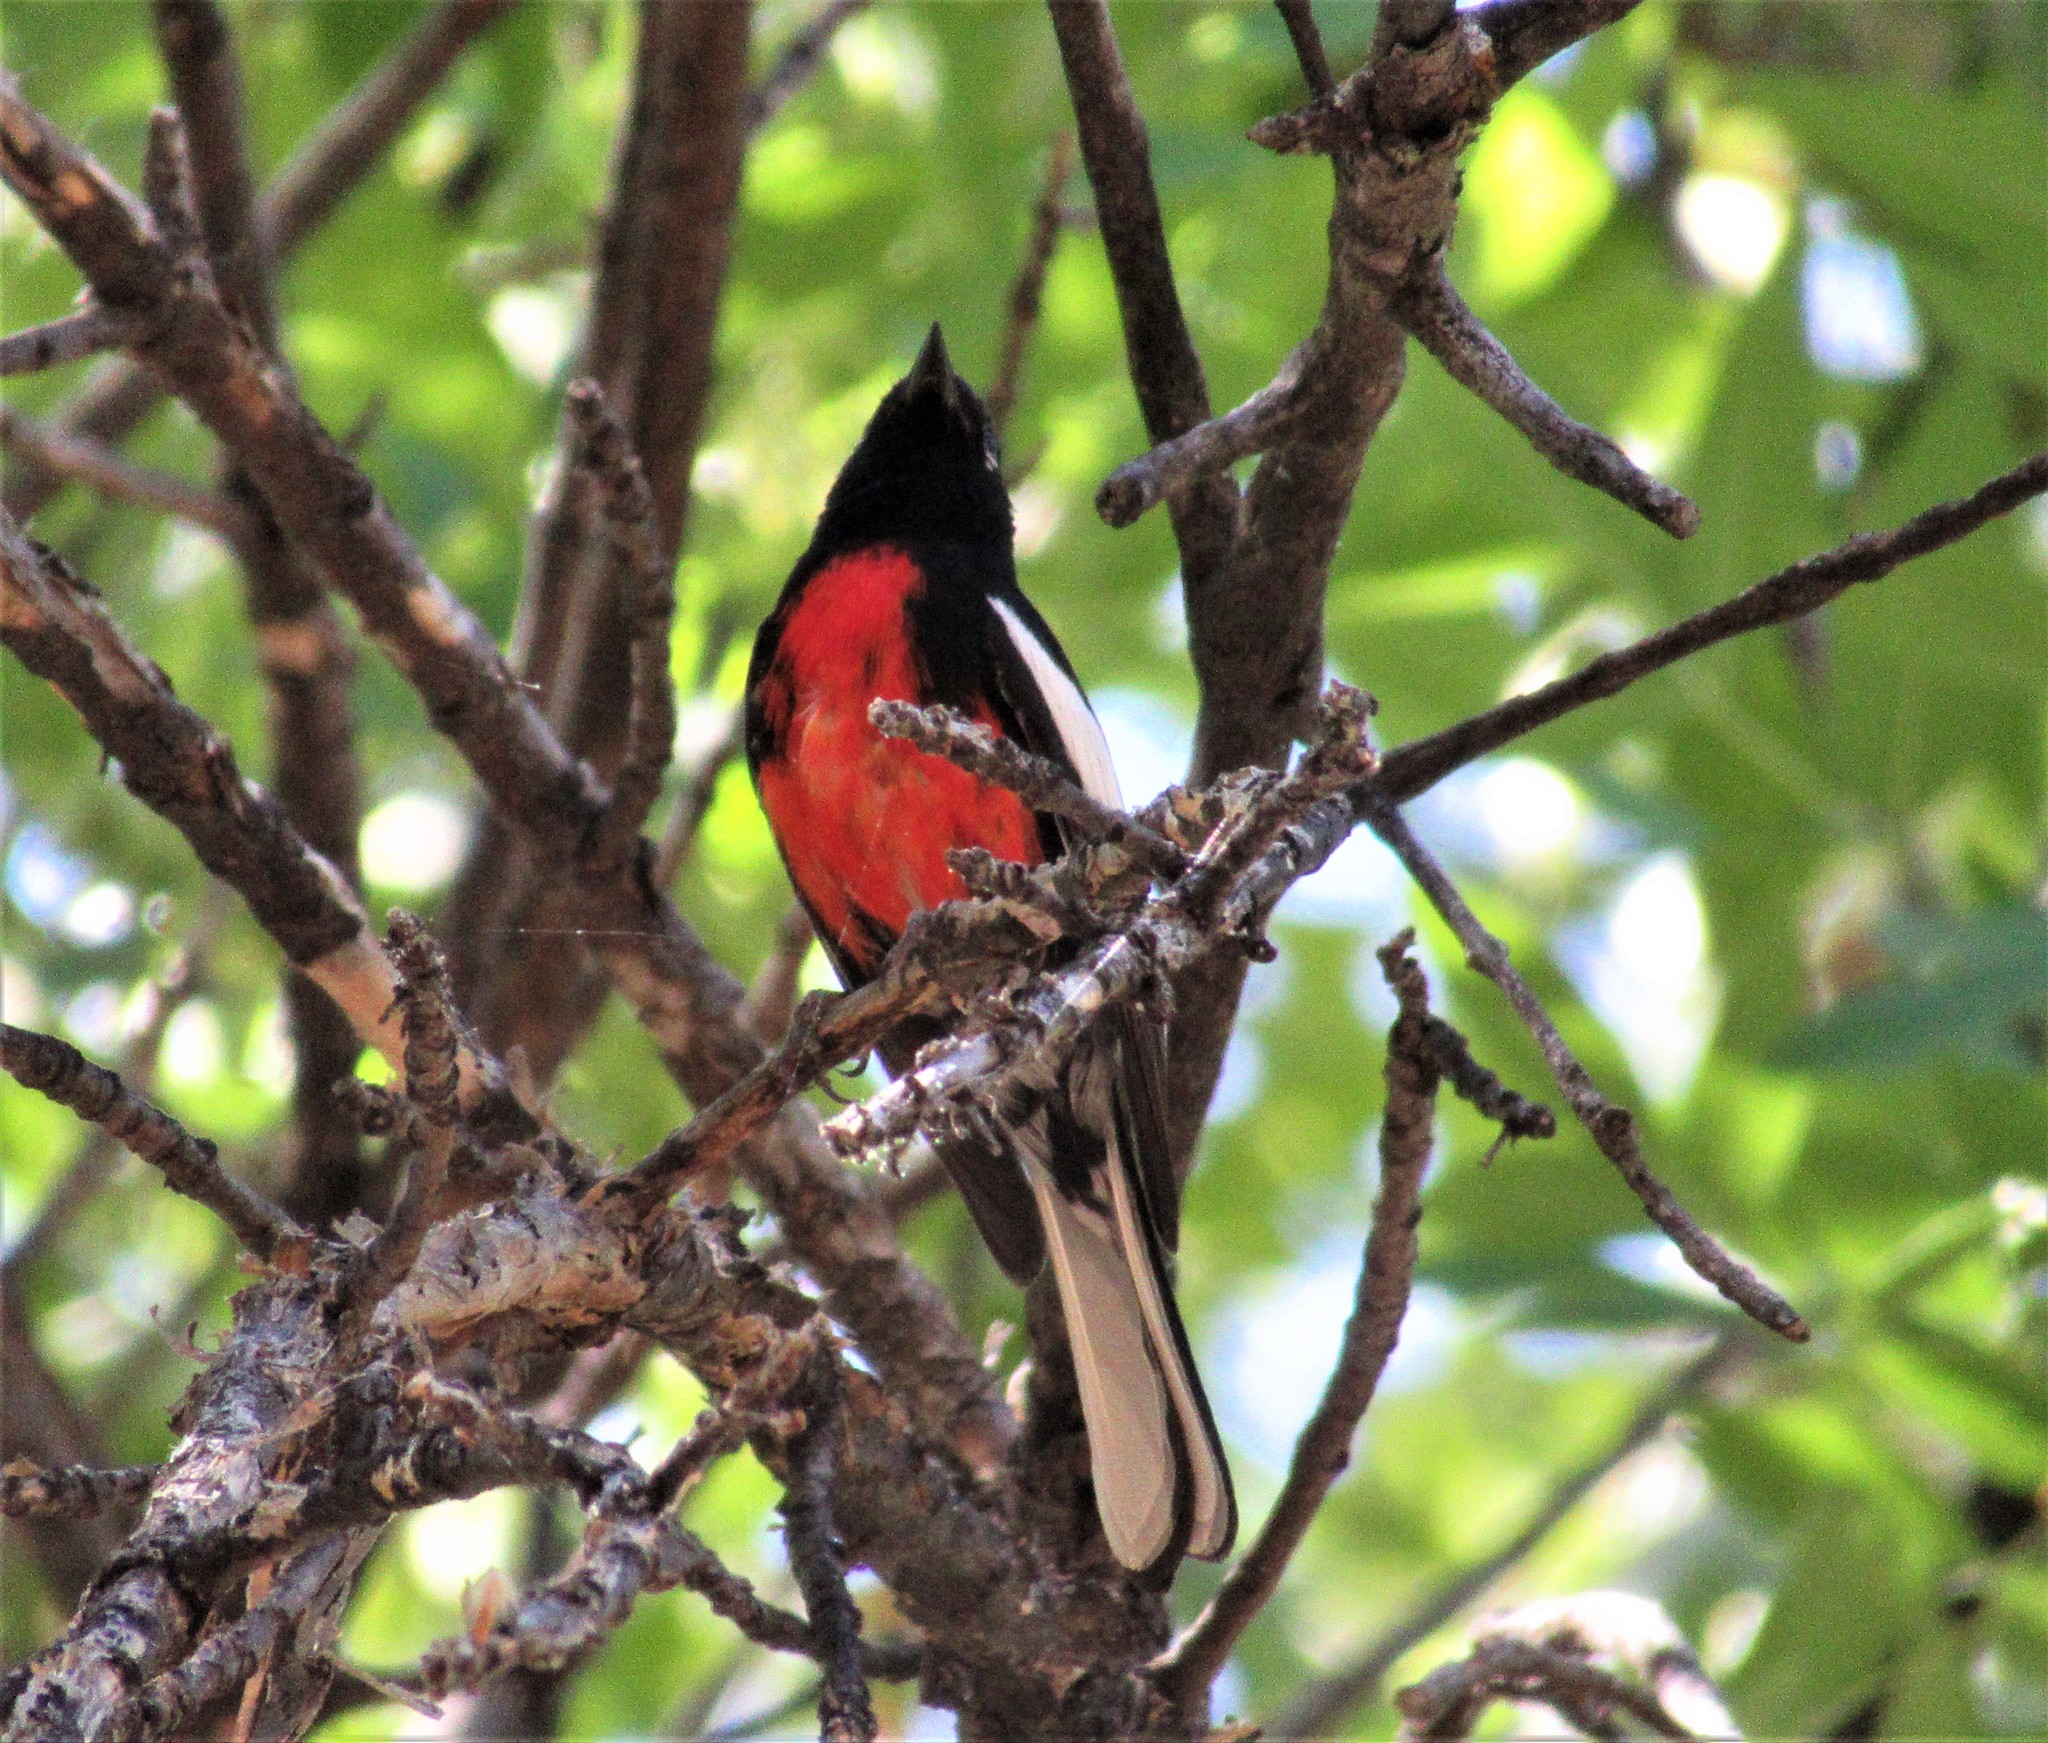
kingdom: Animalia
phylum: Chordata
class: Aves
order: Passeriformes
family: Parulidae
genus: Myioborus
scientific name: Myioborus pictus
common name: Painted whitestart
